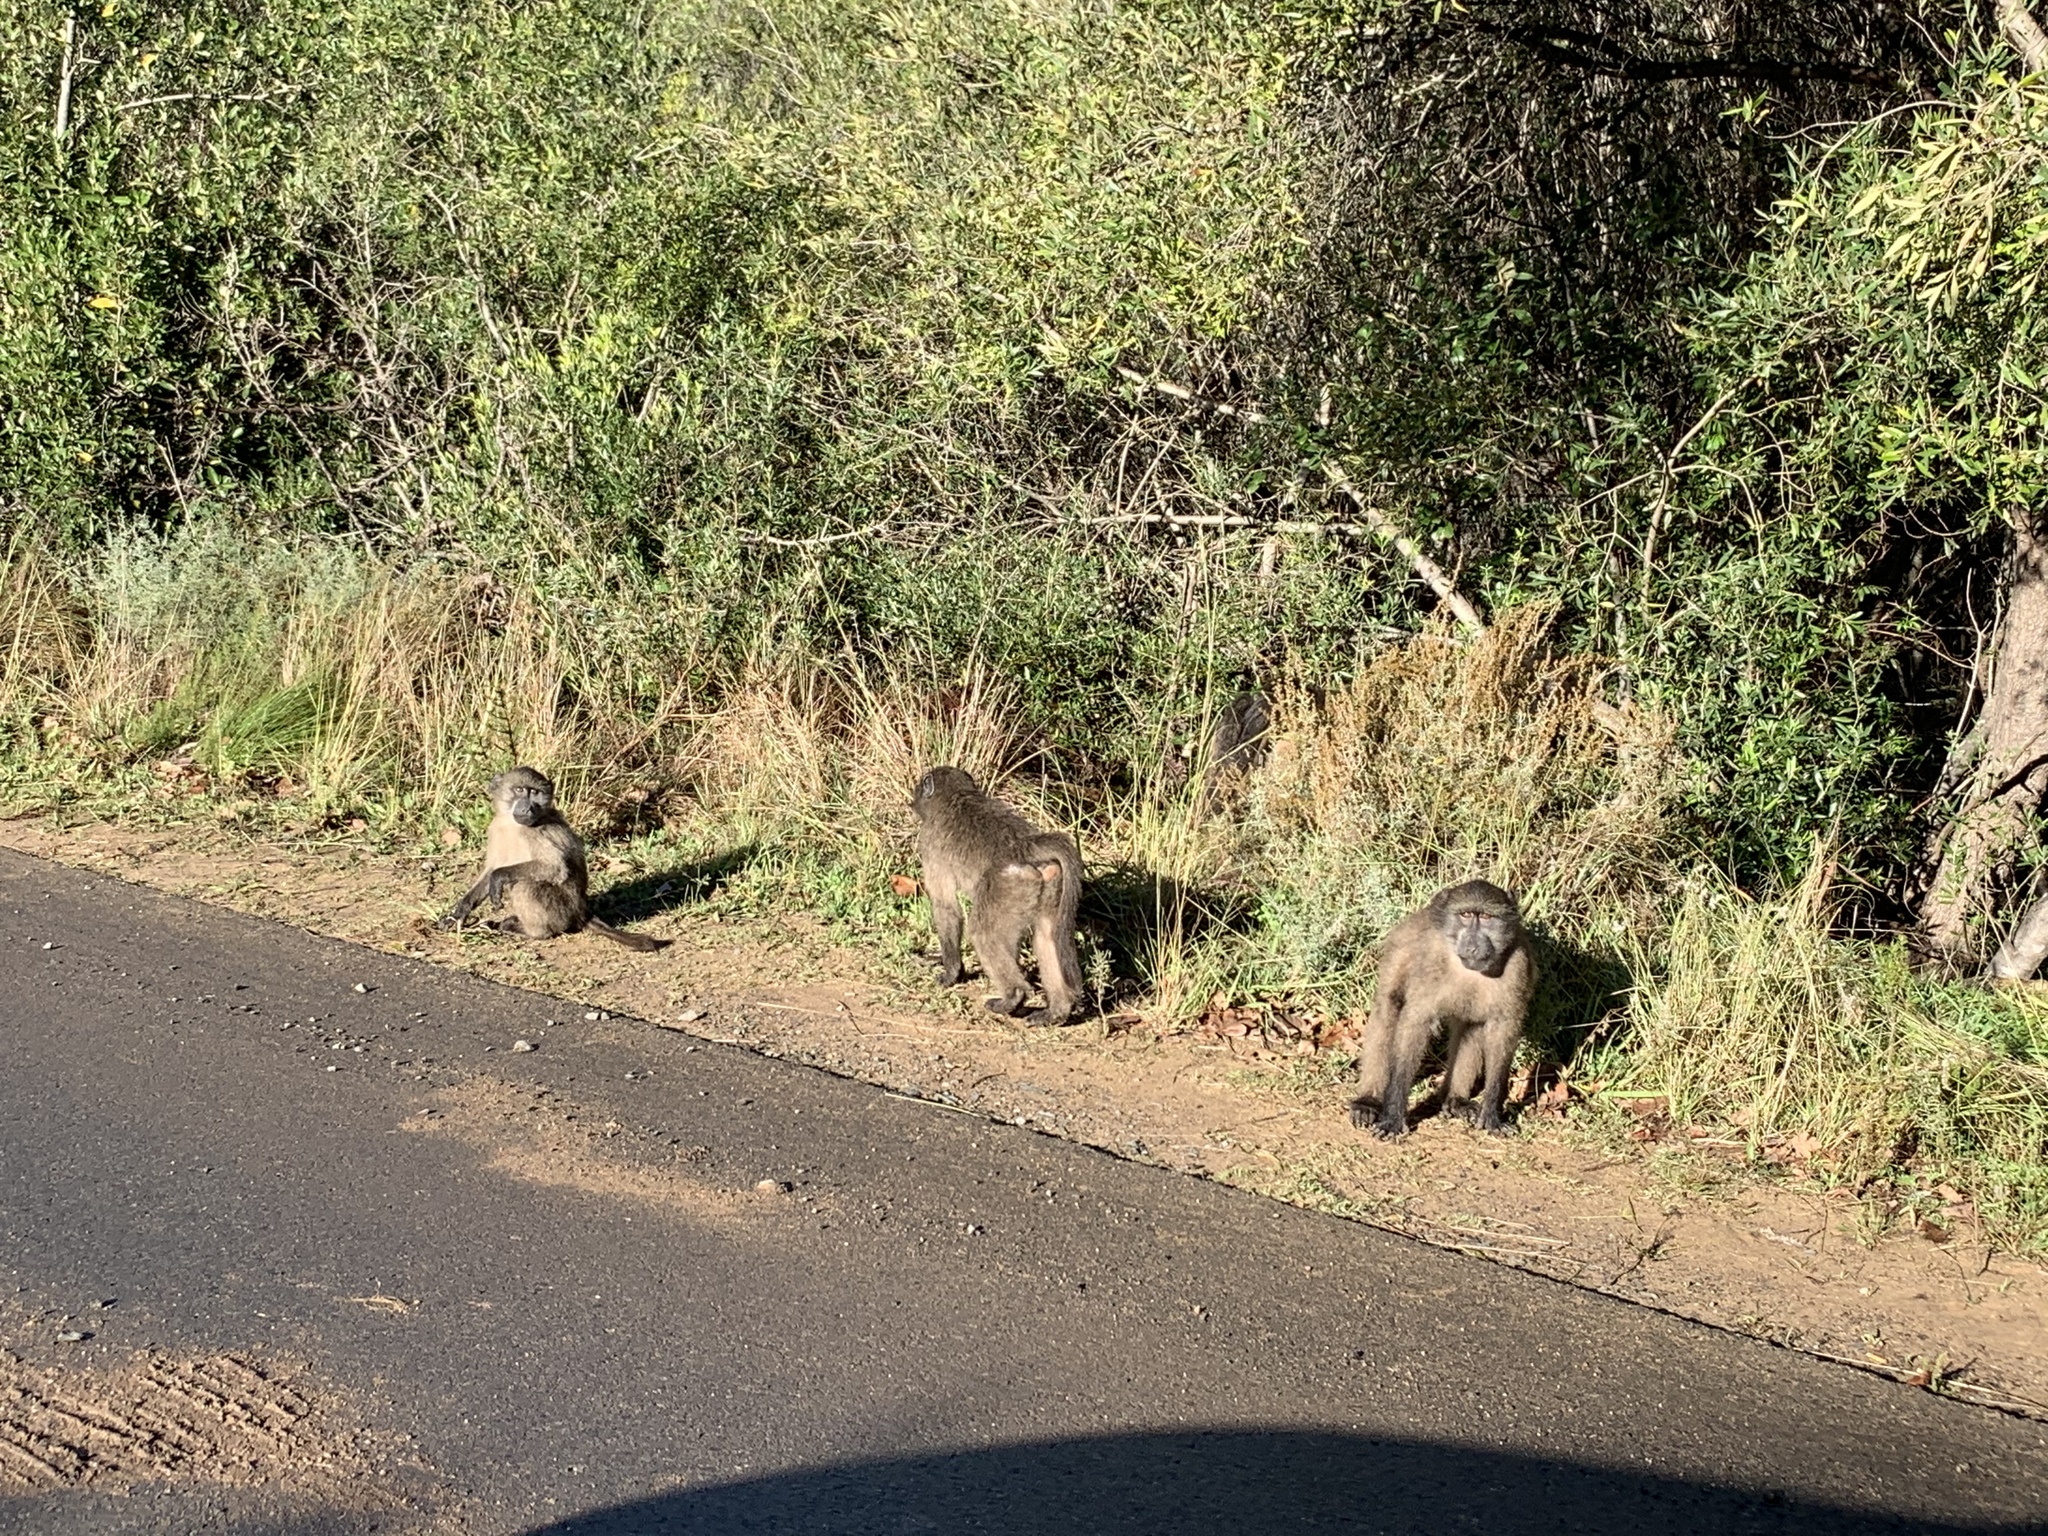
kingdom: Animalia
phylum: Chordata
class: Mammalia
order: Primates
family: Cercopithecidae
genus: Papio
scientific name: Papio ursinus
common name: Chacma baboon
